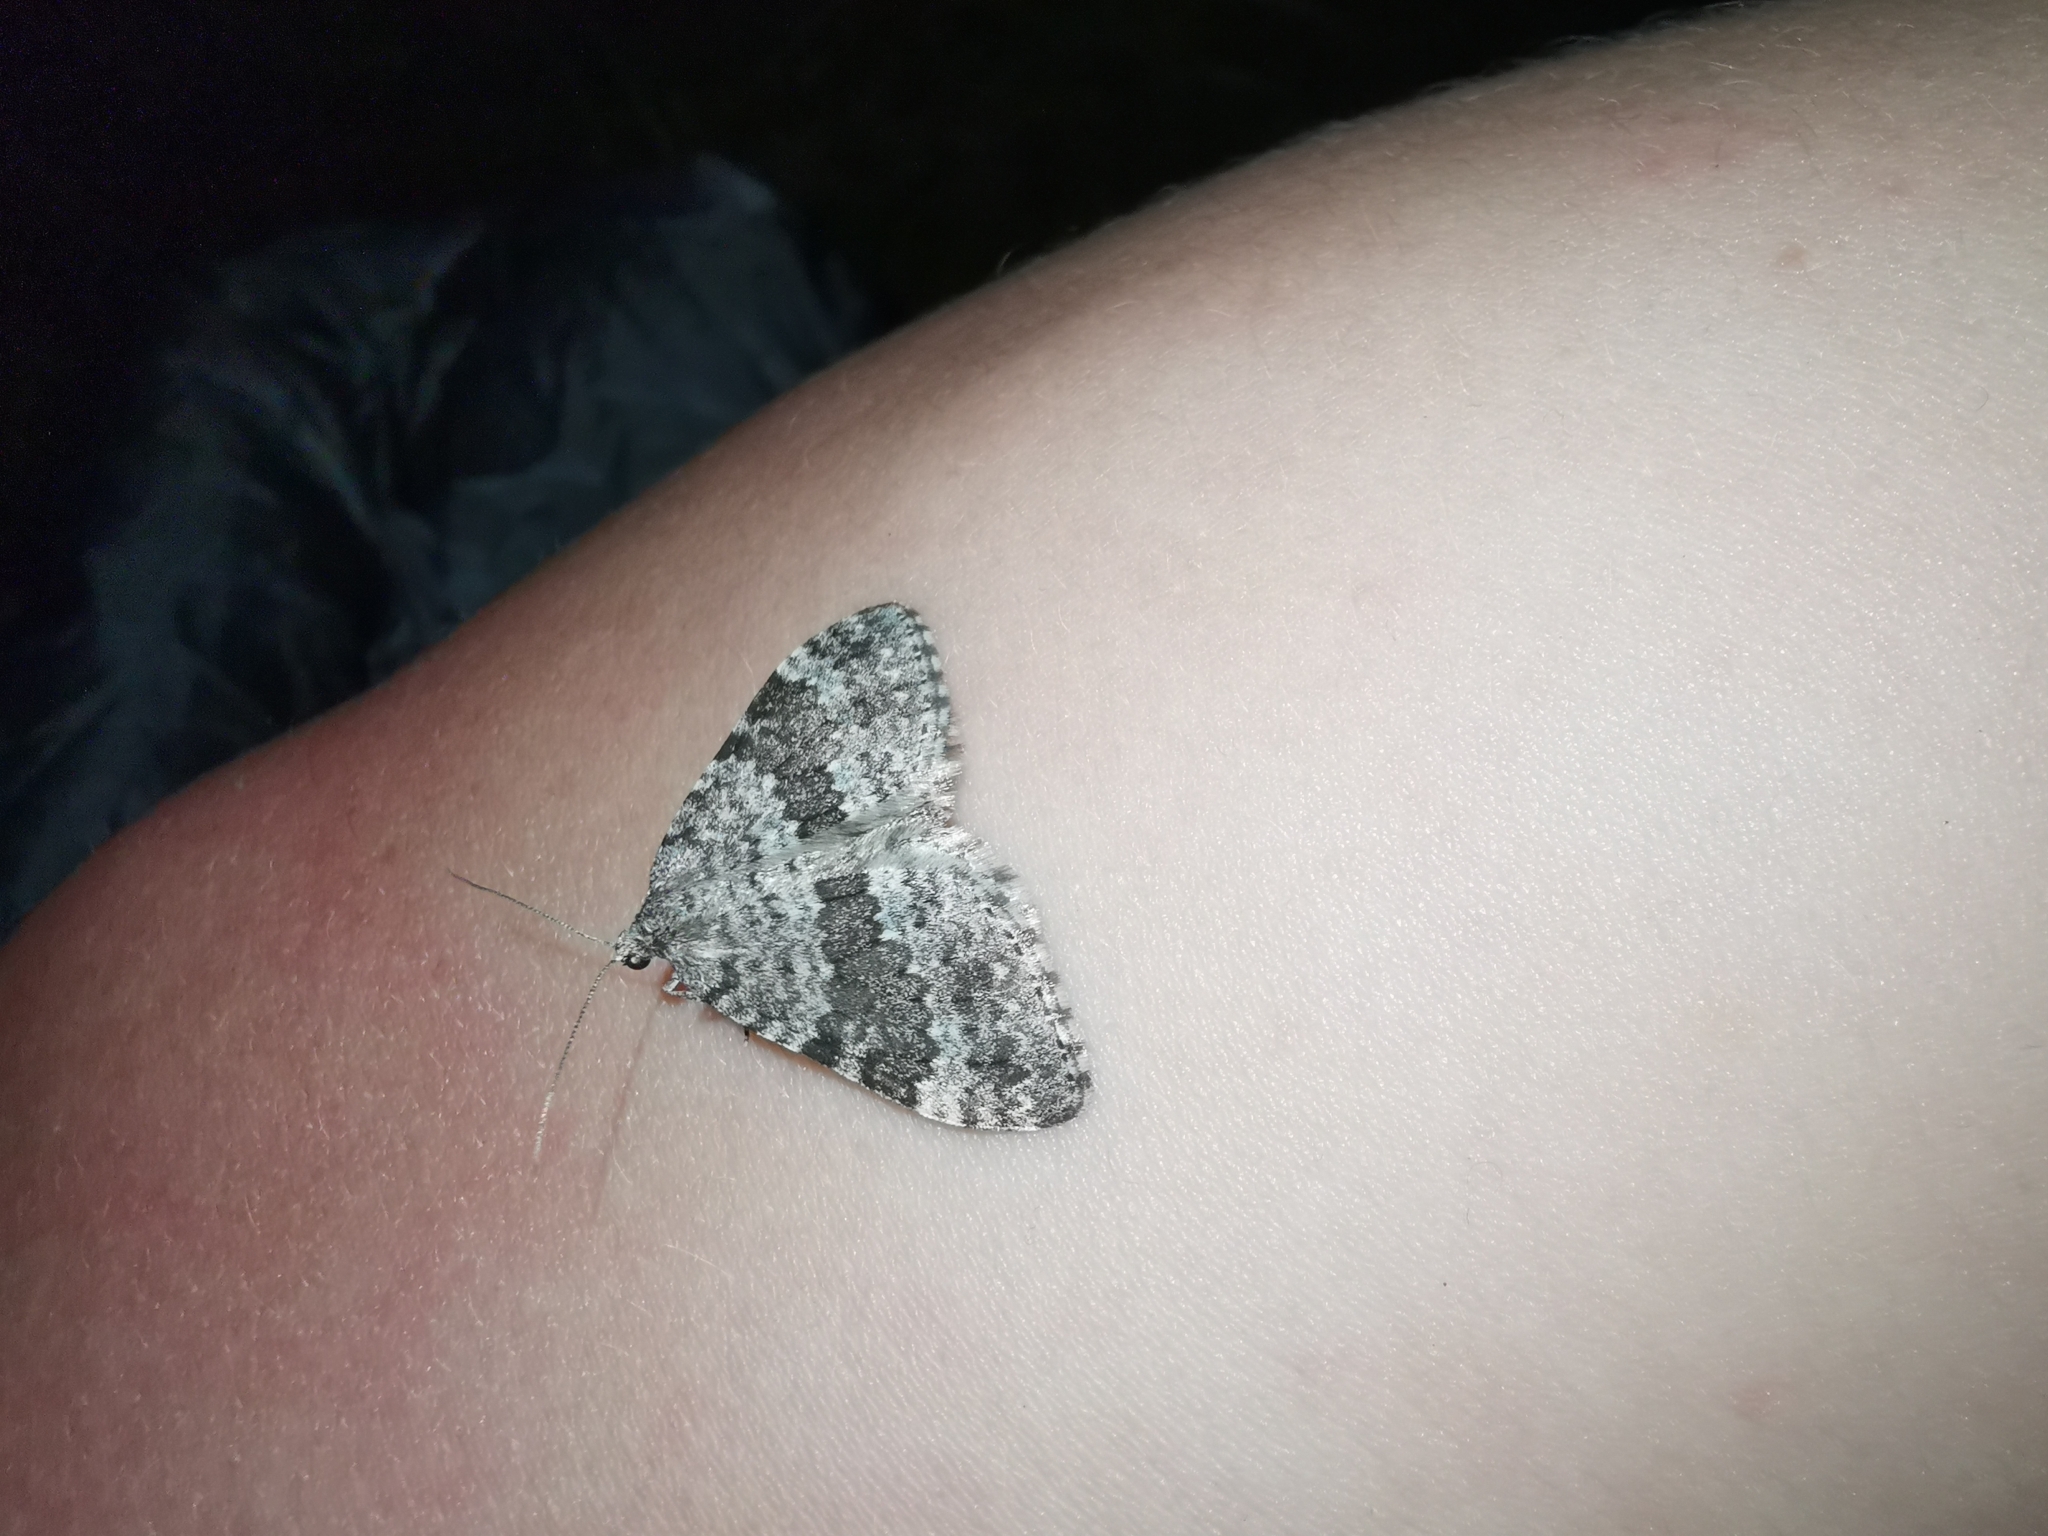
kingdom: Animalia
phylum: Arthropoda
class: Insecta
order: Lepidoptera
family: Geometridae
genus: Entephria
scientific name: Entephria caesiata
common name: Grey mountain moth
